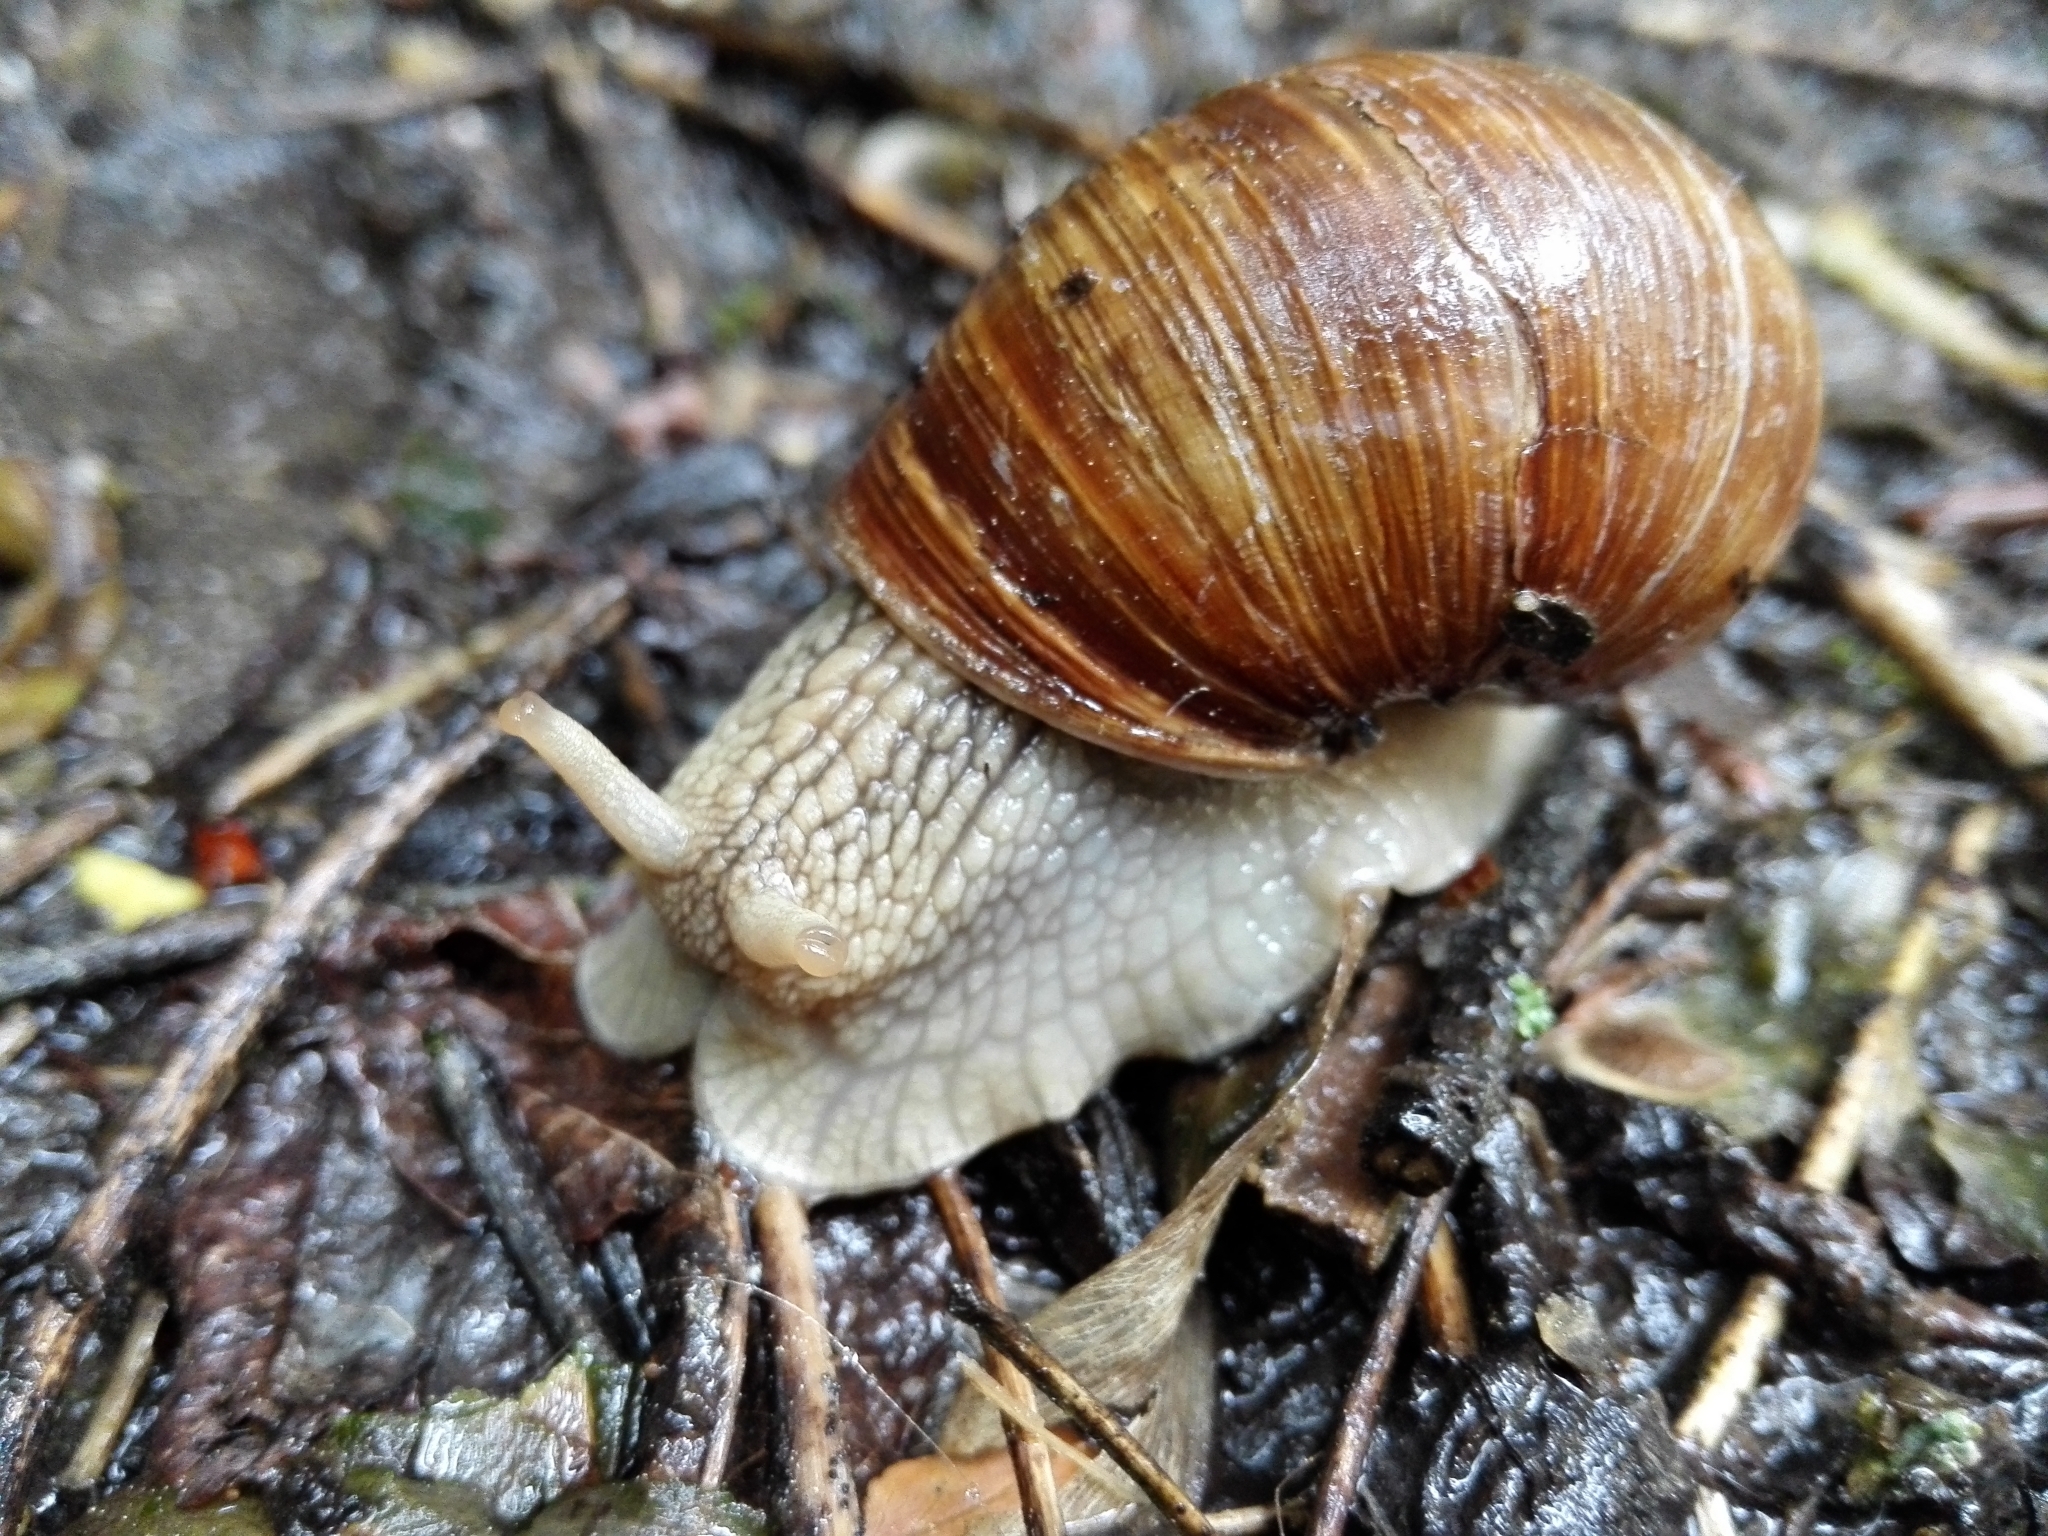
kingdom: Animalia
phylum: Mollusca
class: Gastropoda
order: Stylommatophora
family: Helicidae
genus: Helix
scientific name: Helix pomatia
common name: Roman snail
